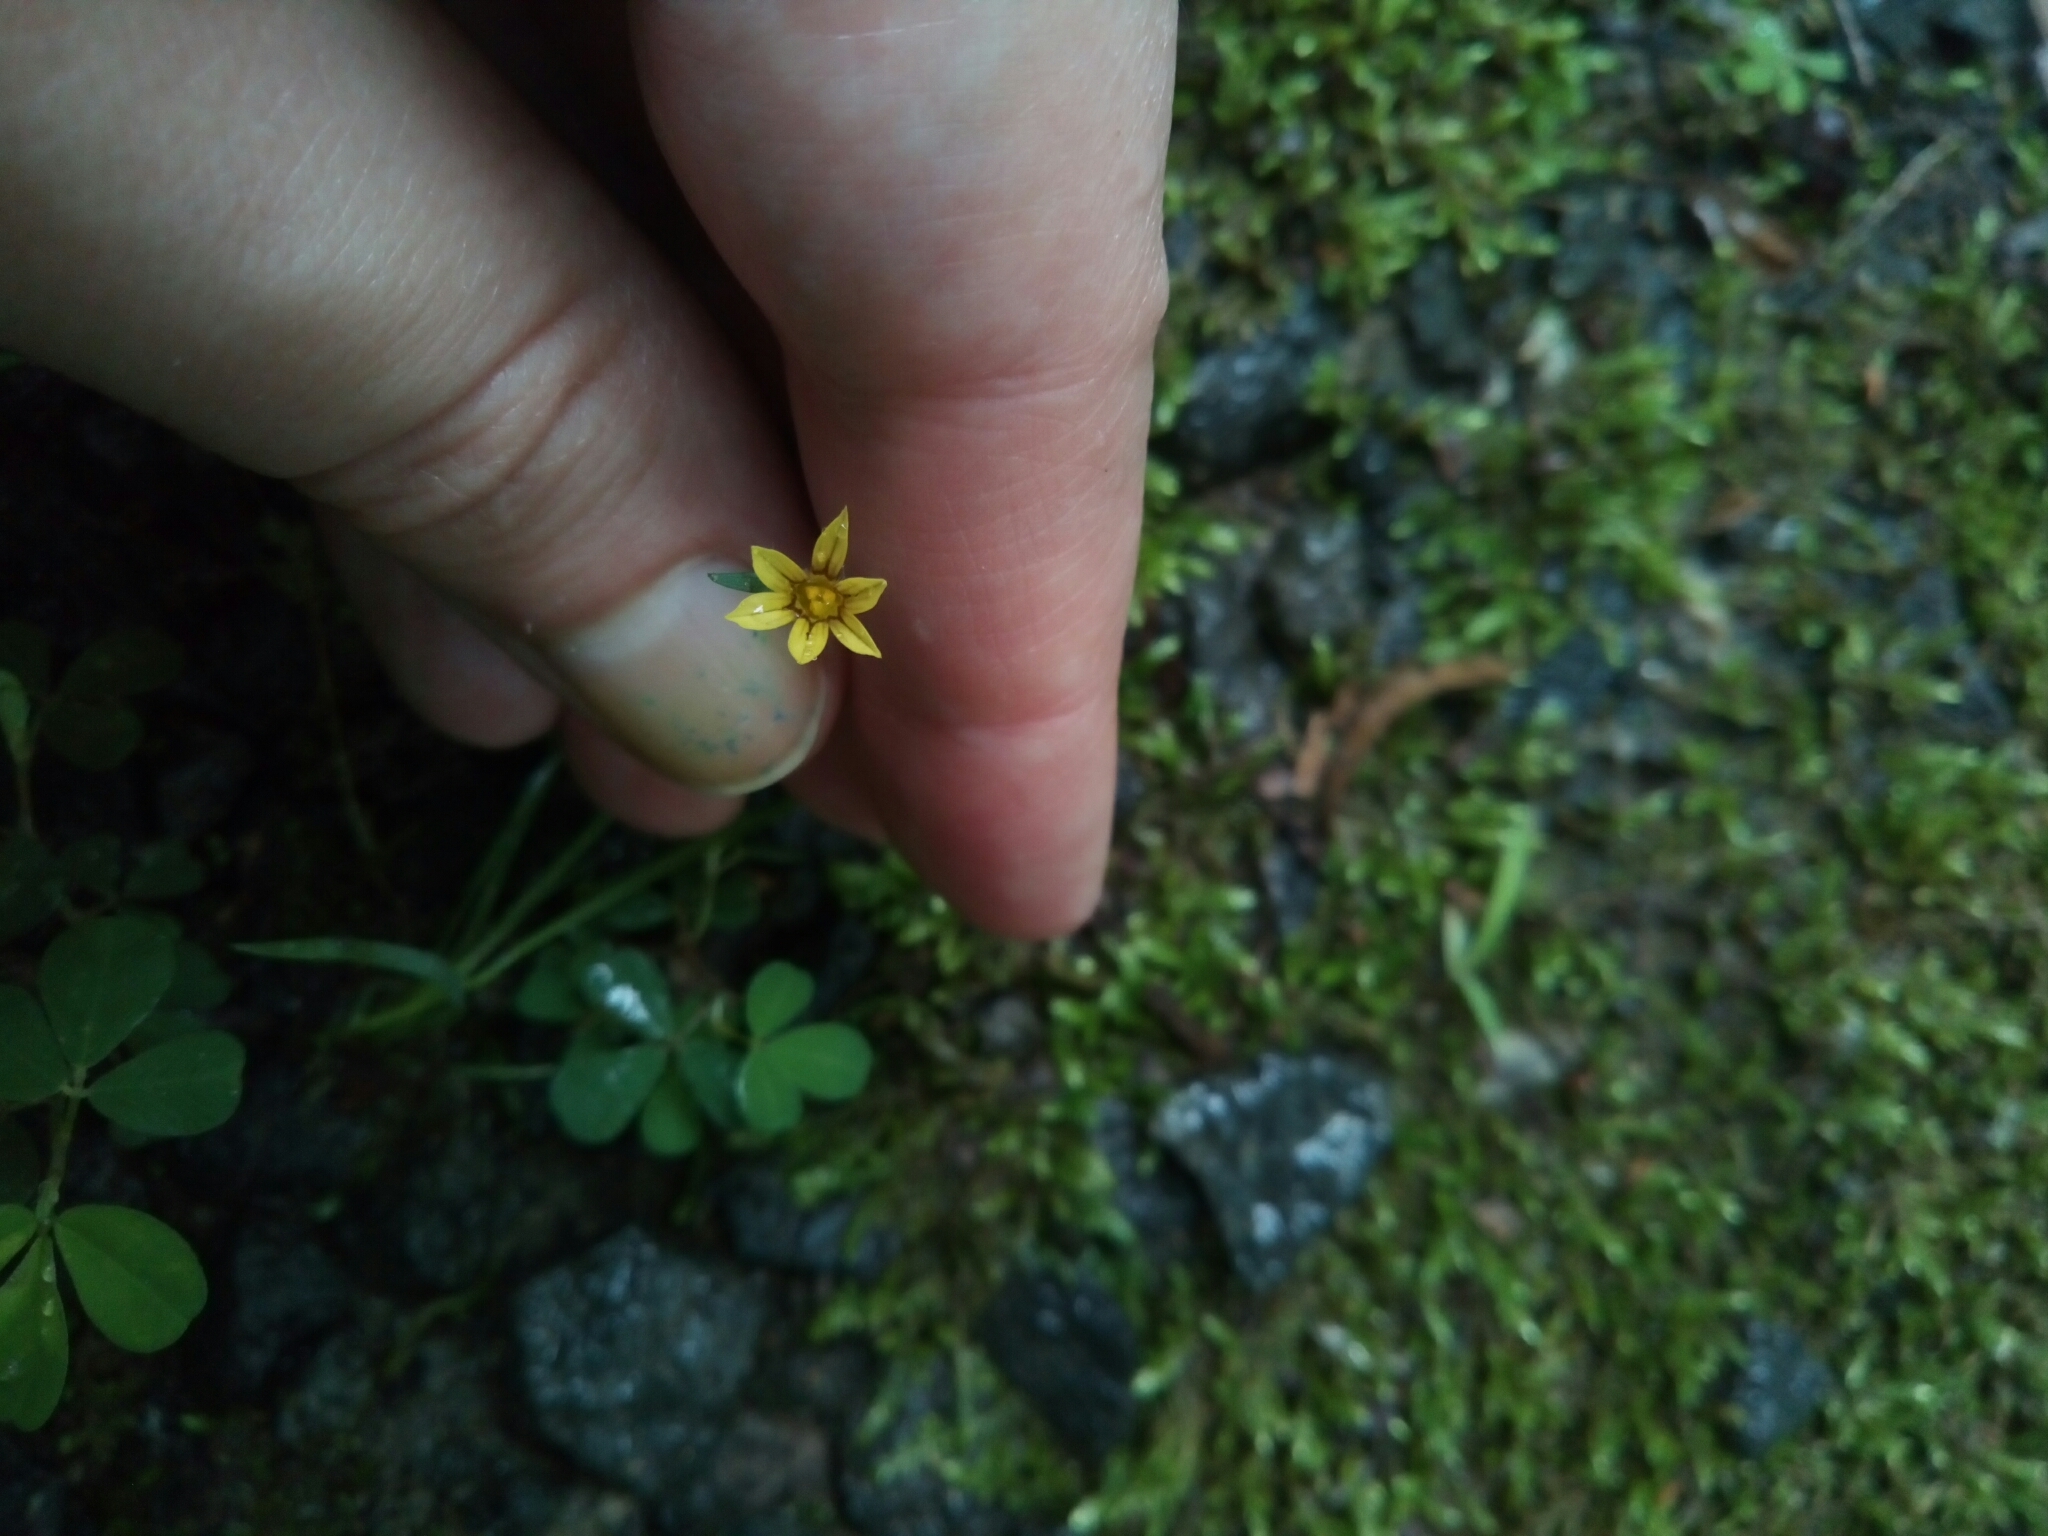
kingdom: Plantae
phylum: Tracheophyta
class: Liliopsida
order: Asparagales
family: Iridaceae
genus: Sisyrinchium
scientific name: Sisyrinchium micranthum
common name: Bermuda pigroot
